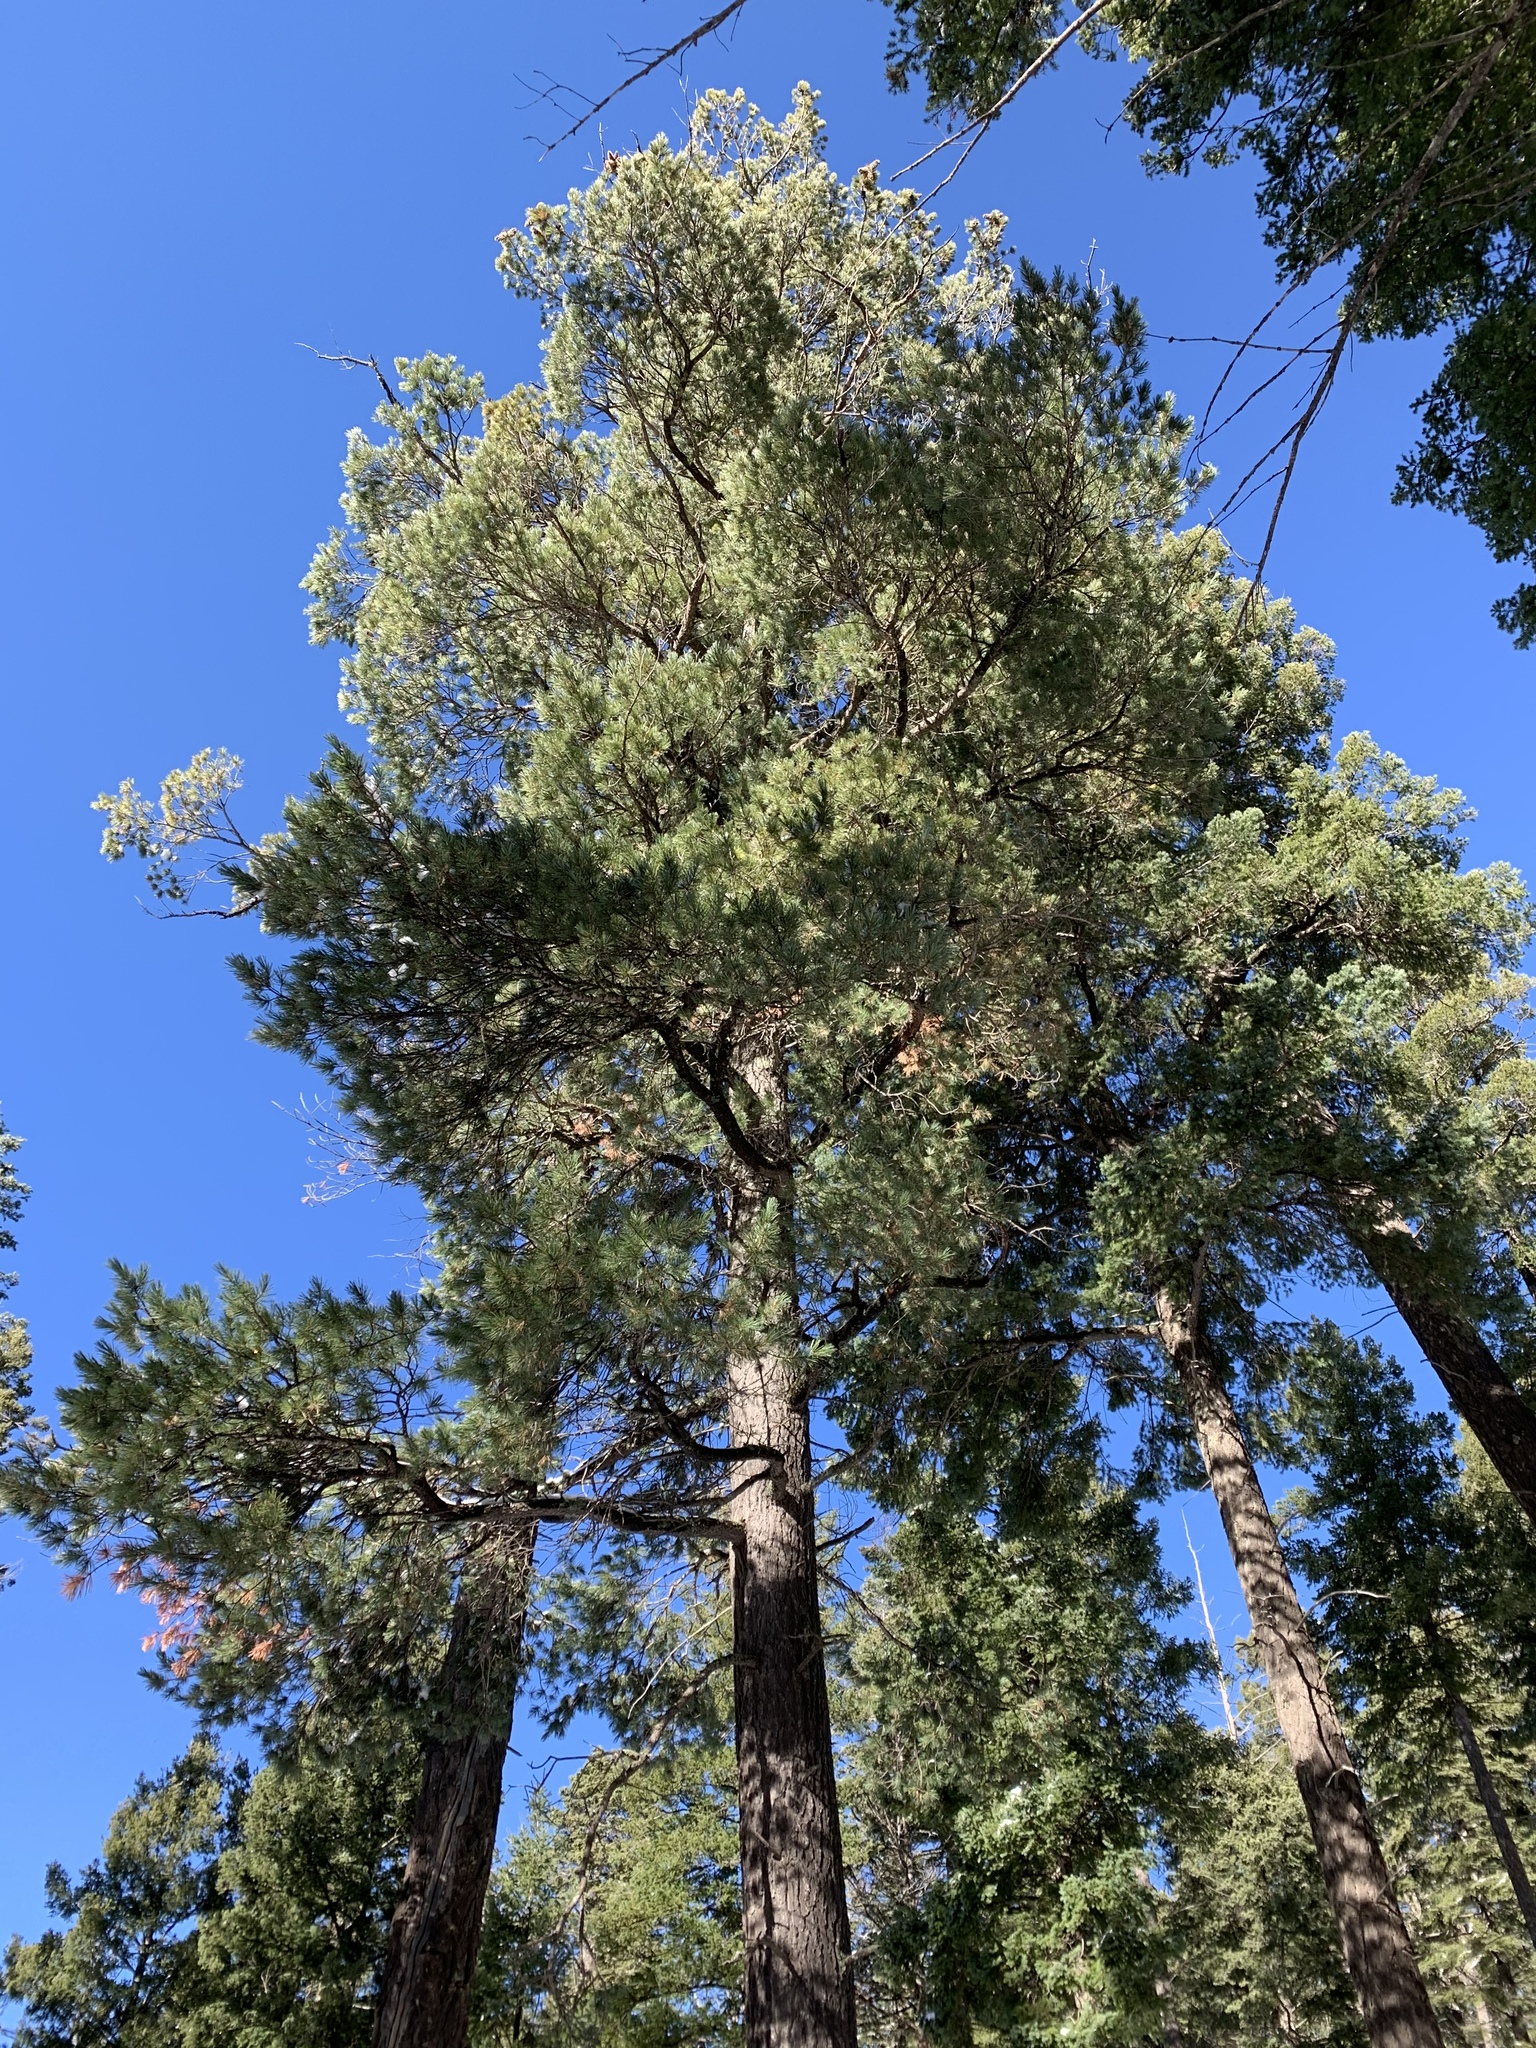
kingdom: Plantae
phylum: Tracheophyta
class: Pinopsida
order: Pinales
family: Pinaceae
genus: Pinus
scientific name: Pinus strobiformis
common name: Southwestern white pine
